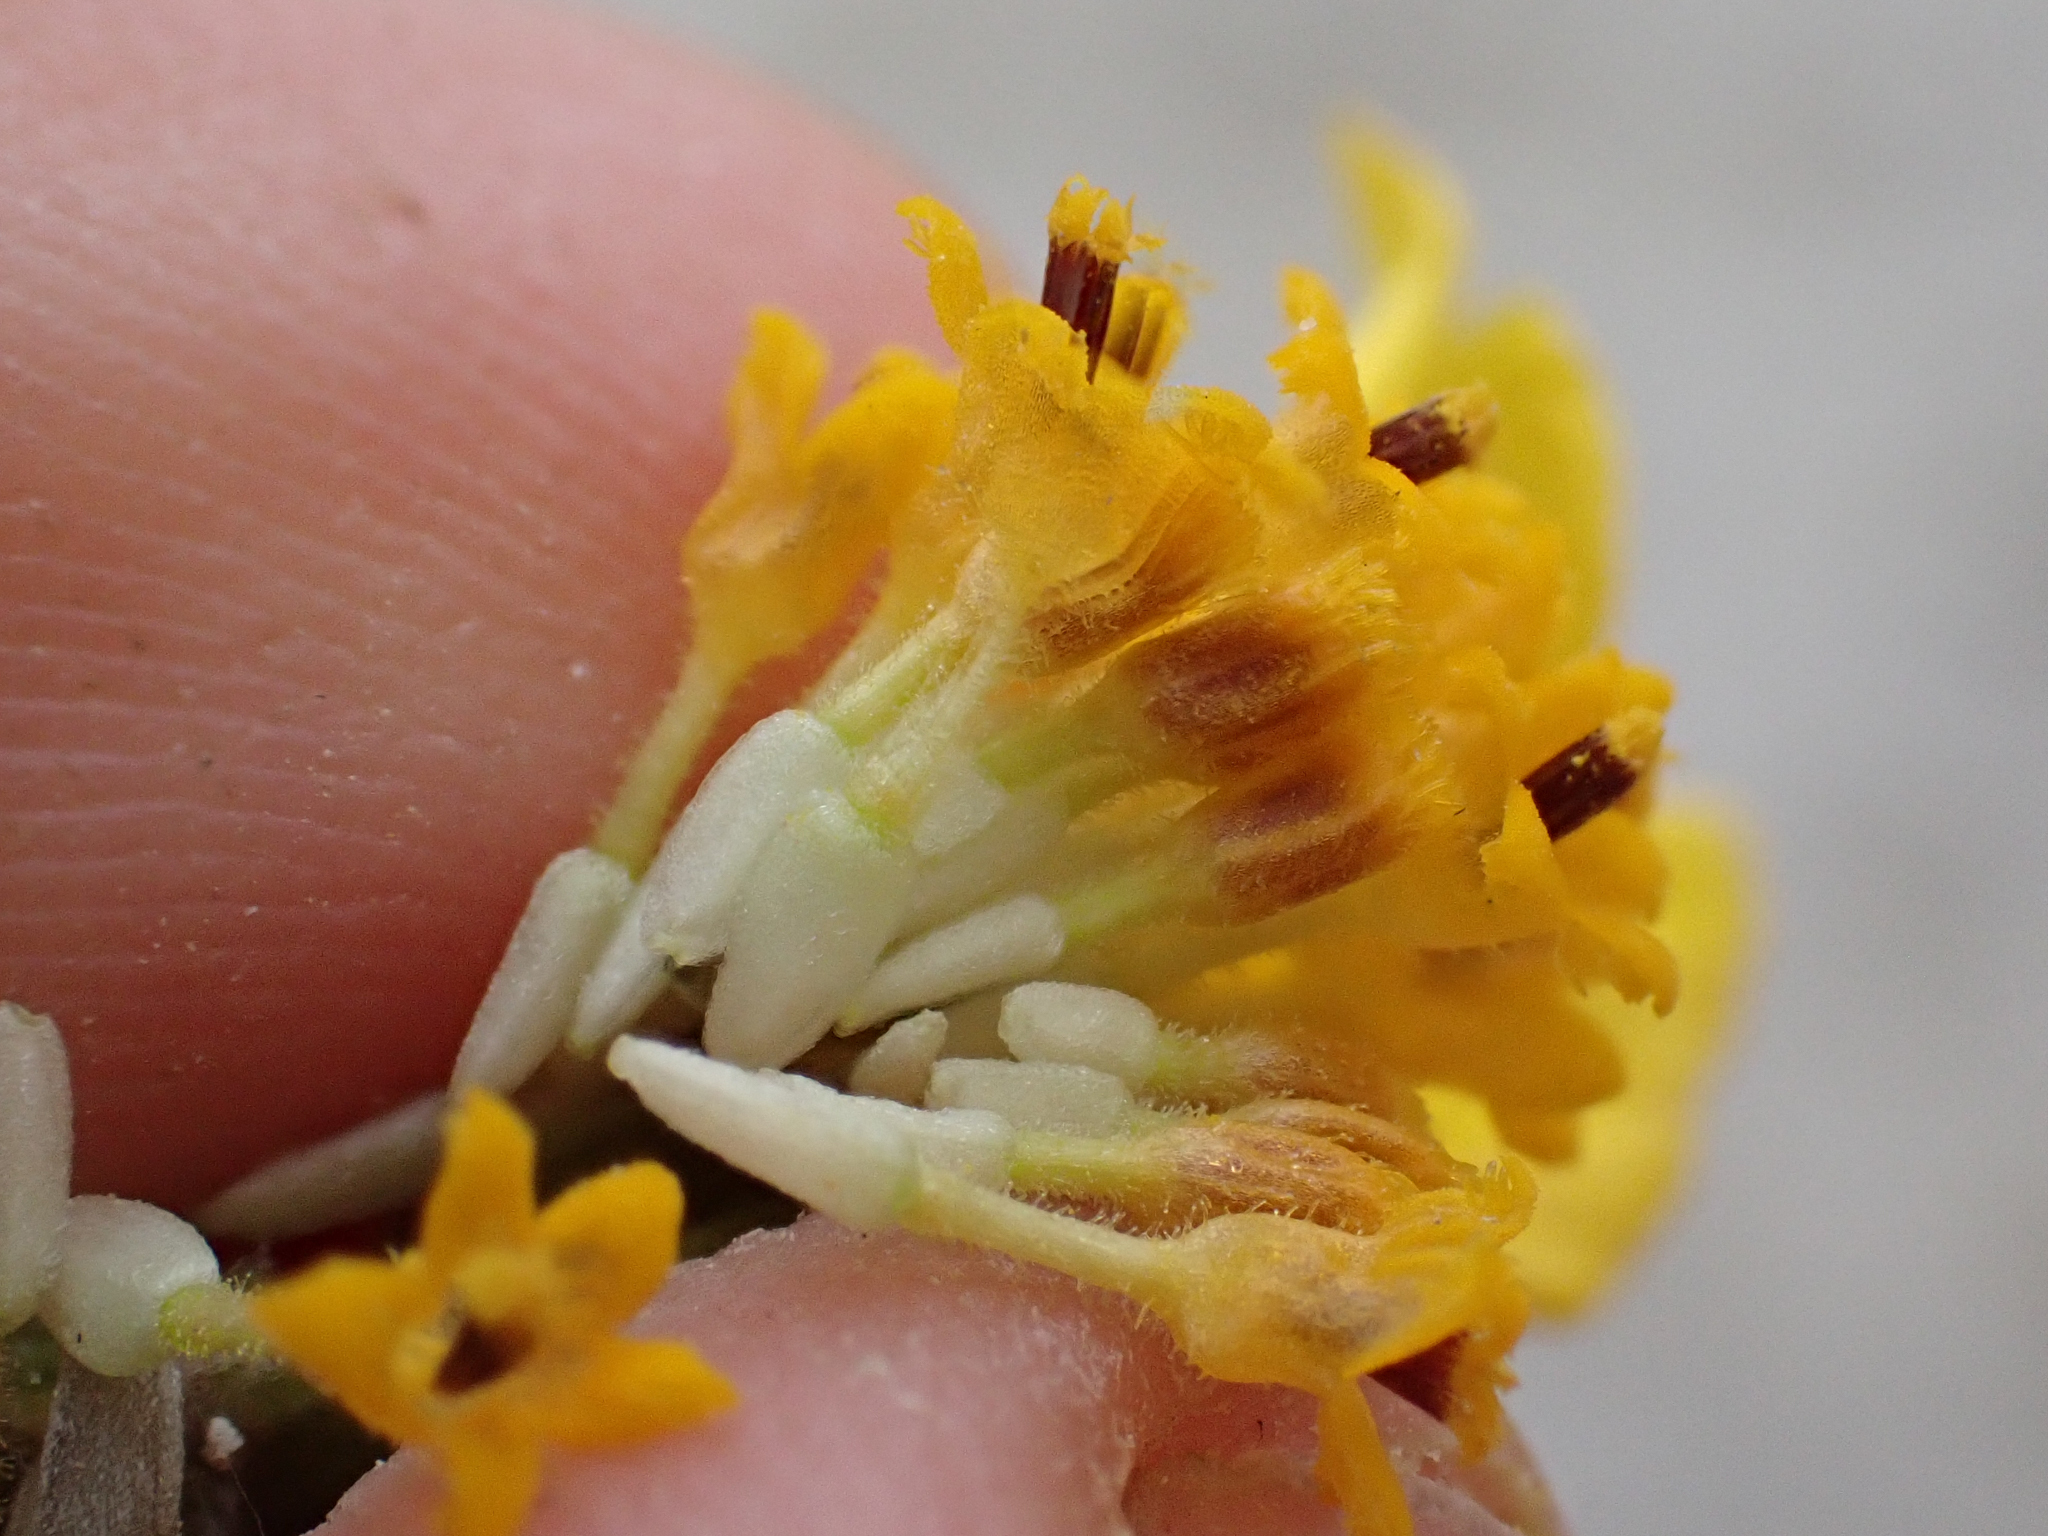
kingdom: Plantae
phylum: Tracheophyta
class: Magnoliopsida
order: Asterales
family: Asteraceae
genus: Monolopia
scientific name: Monolopia lanceolata
